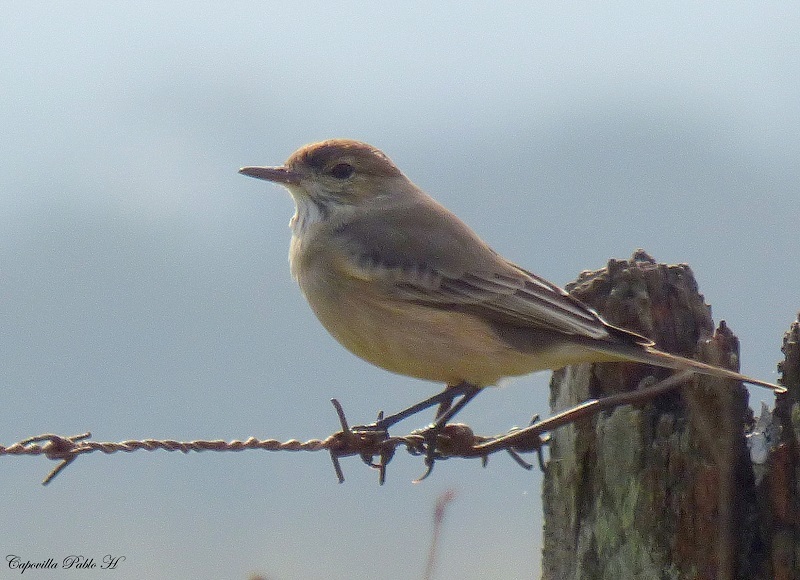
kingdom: Animalia
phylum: Chordata
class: Aves
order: Passeriformes
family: Tyrannidae
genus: Agriornis
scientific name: Agriornis murinus
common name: Lesser shrike-tyrant
